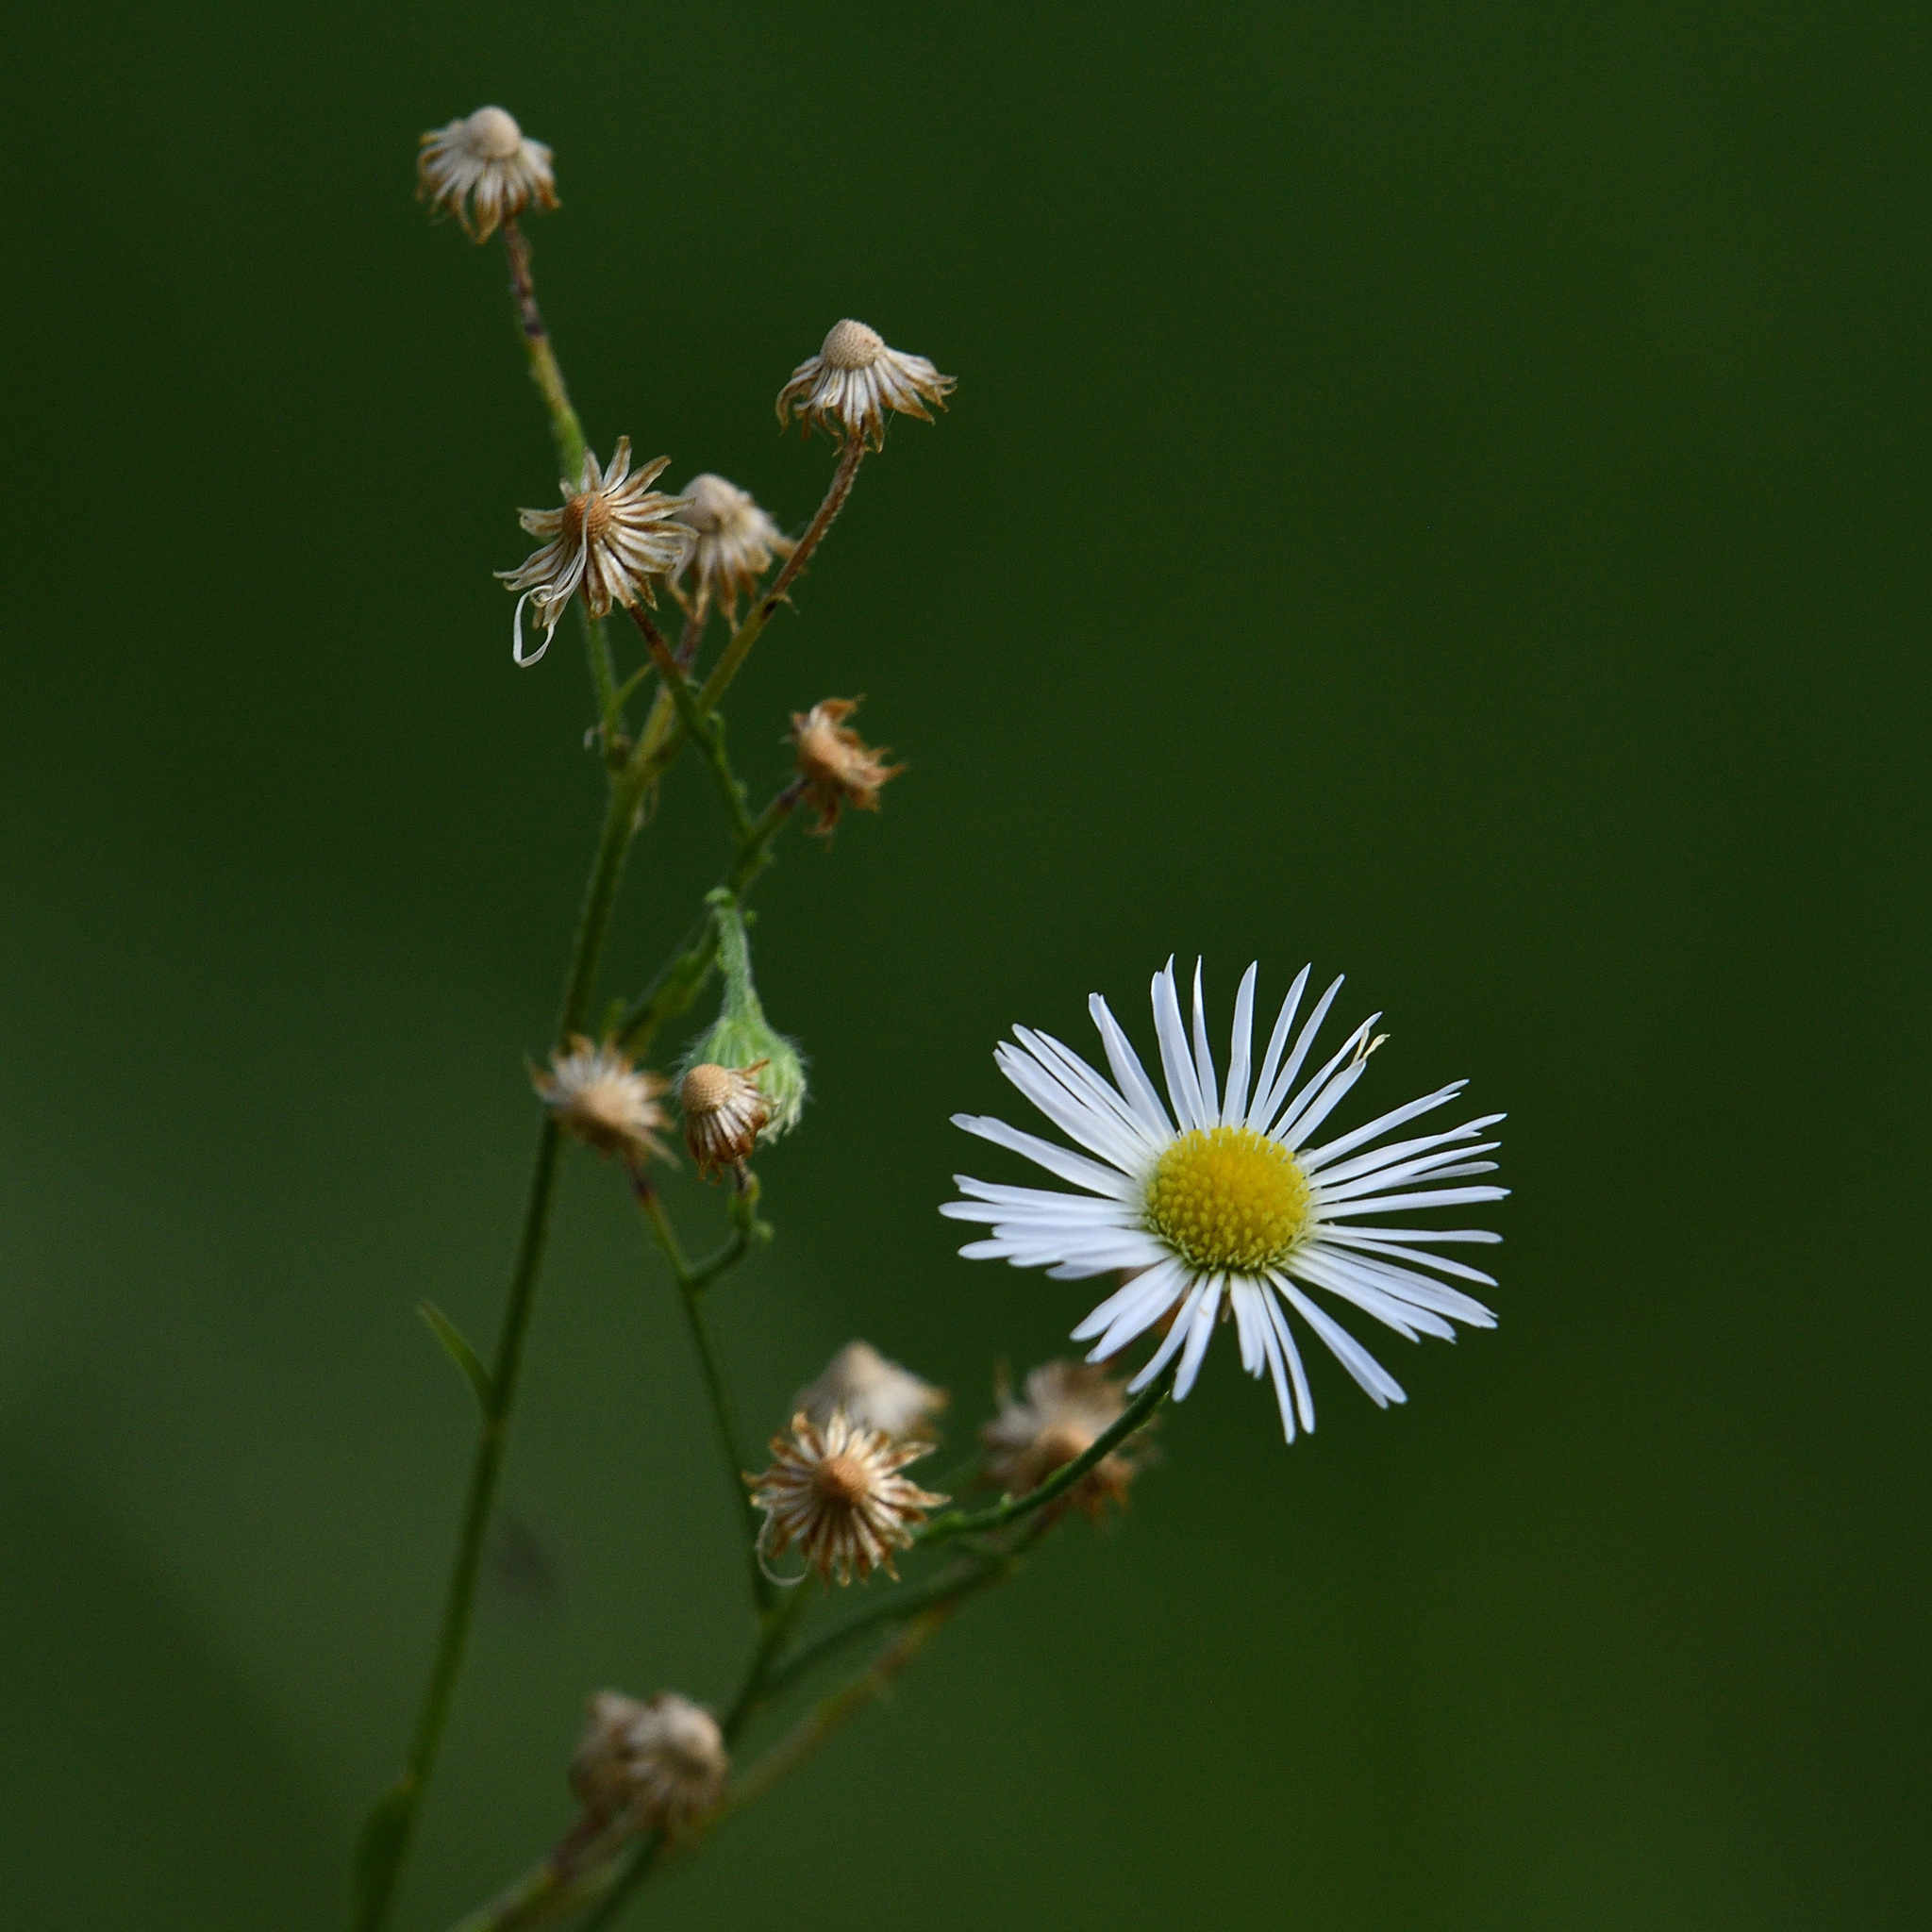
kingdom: Plantae
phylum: Tracheophyta
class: Magnoliopsida
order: Asterales
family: Asteraceae
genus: Erigeron
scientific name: Erigeron annuus
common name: Tall fleabane
